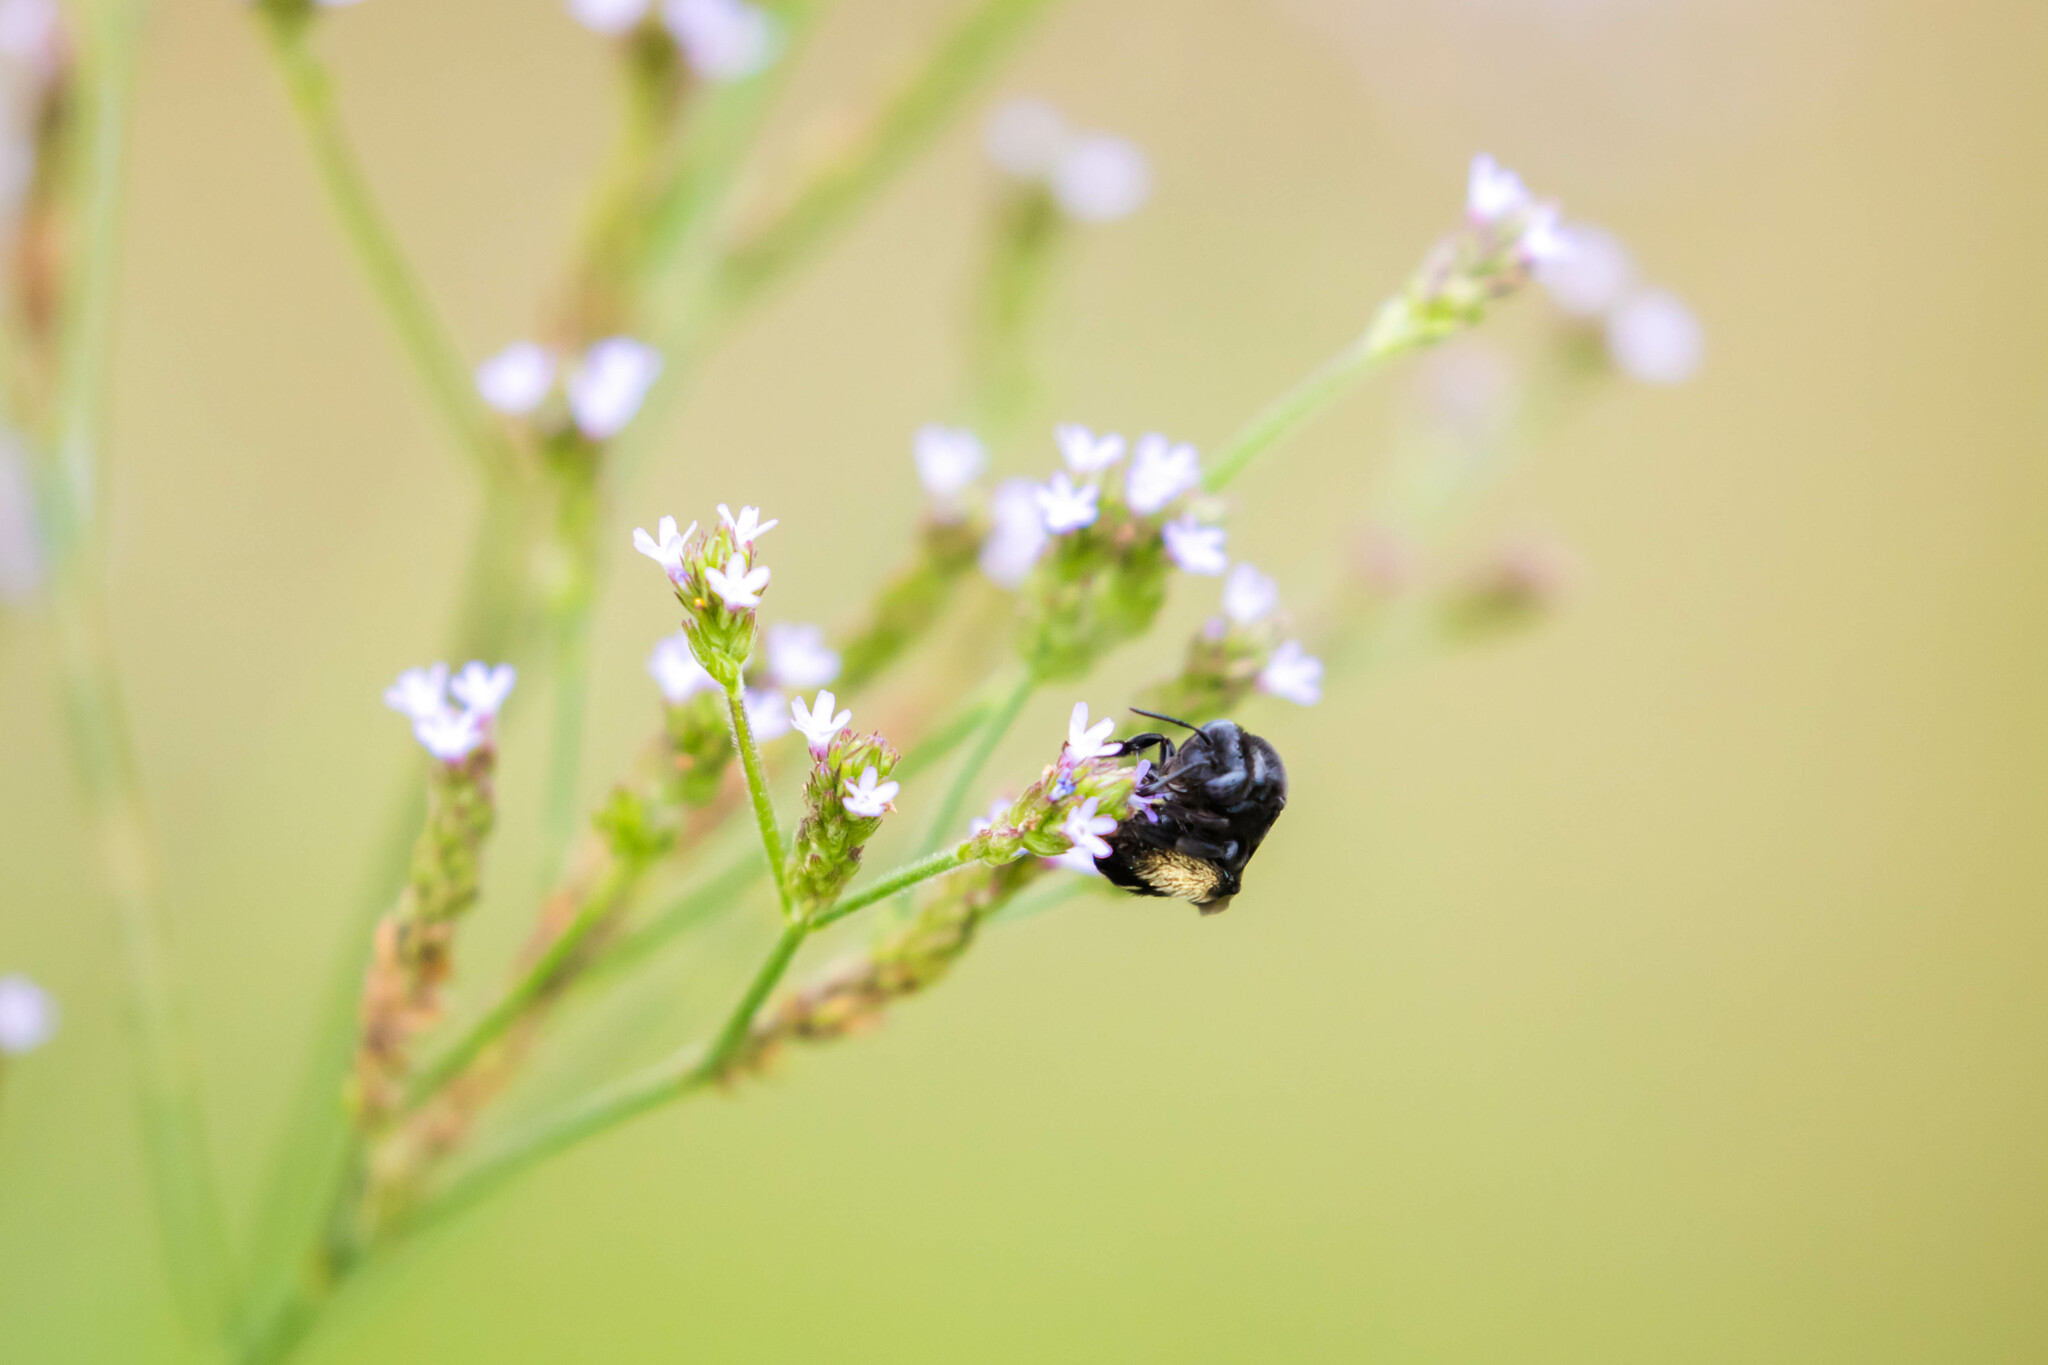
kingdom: Animalia
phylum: Arthropoda
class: Insecta
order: Hymenoptera
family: Apidae
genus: Melissodes
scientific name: Melissodes bimaculatus
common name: Two-spotted long-horned bee
